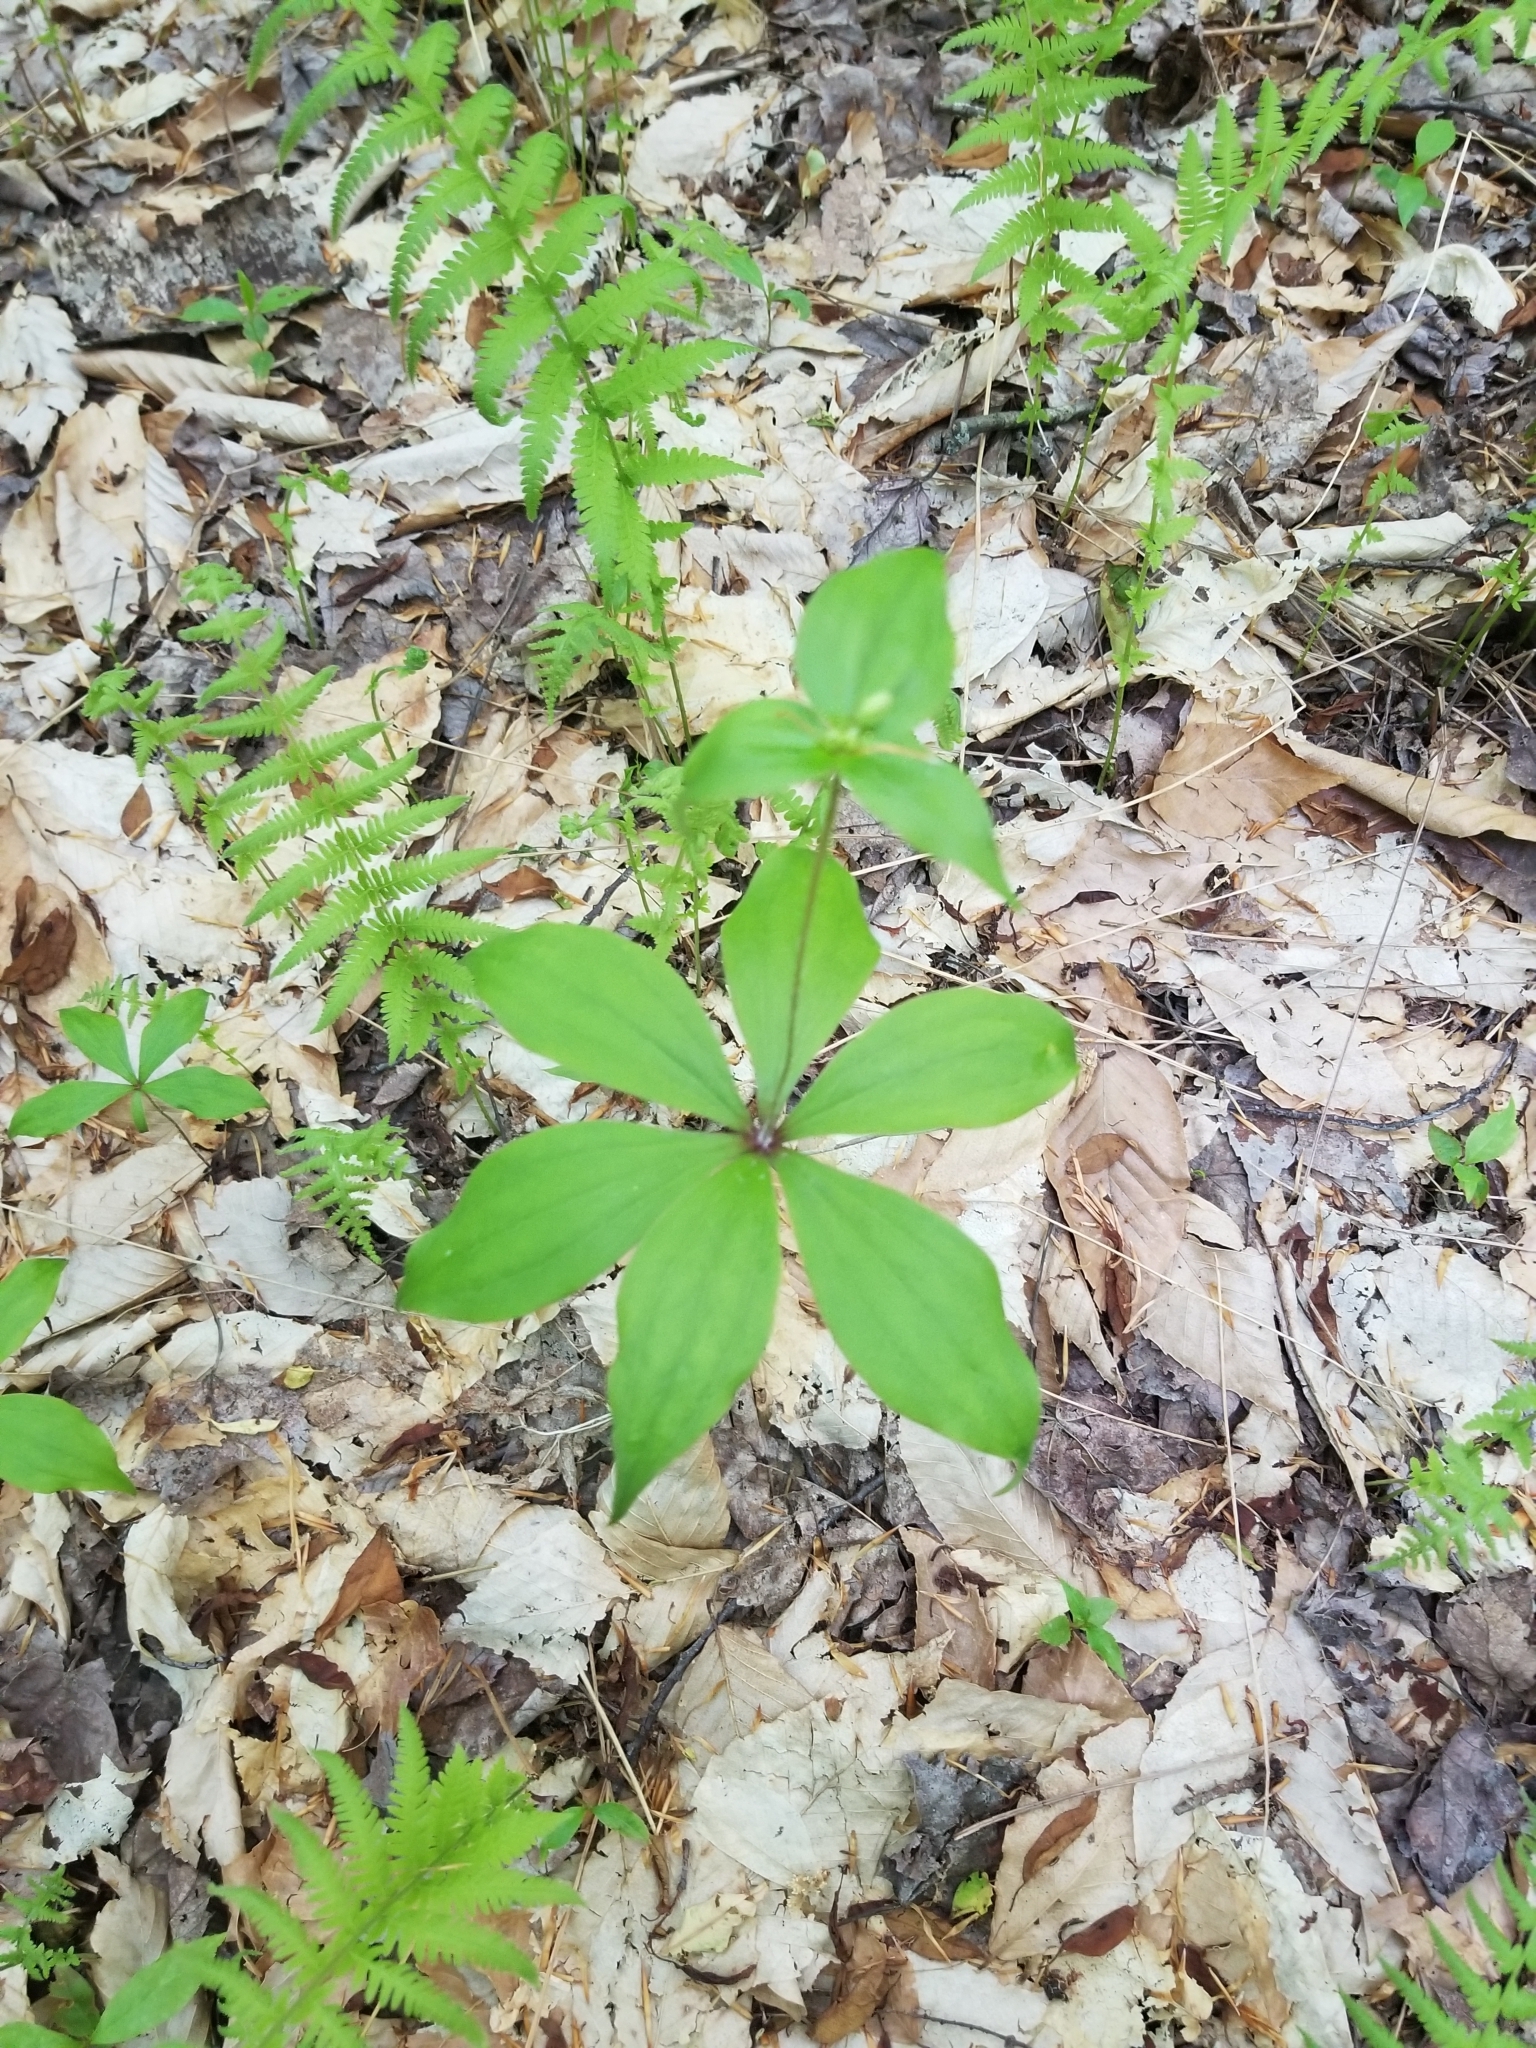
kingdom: Plantae
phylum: Tracheophyta
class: Liliopsida
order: Liliales
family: Liliaceae
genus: Medeola
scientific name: Medeola virginiana
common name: Indian cucumber-root
